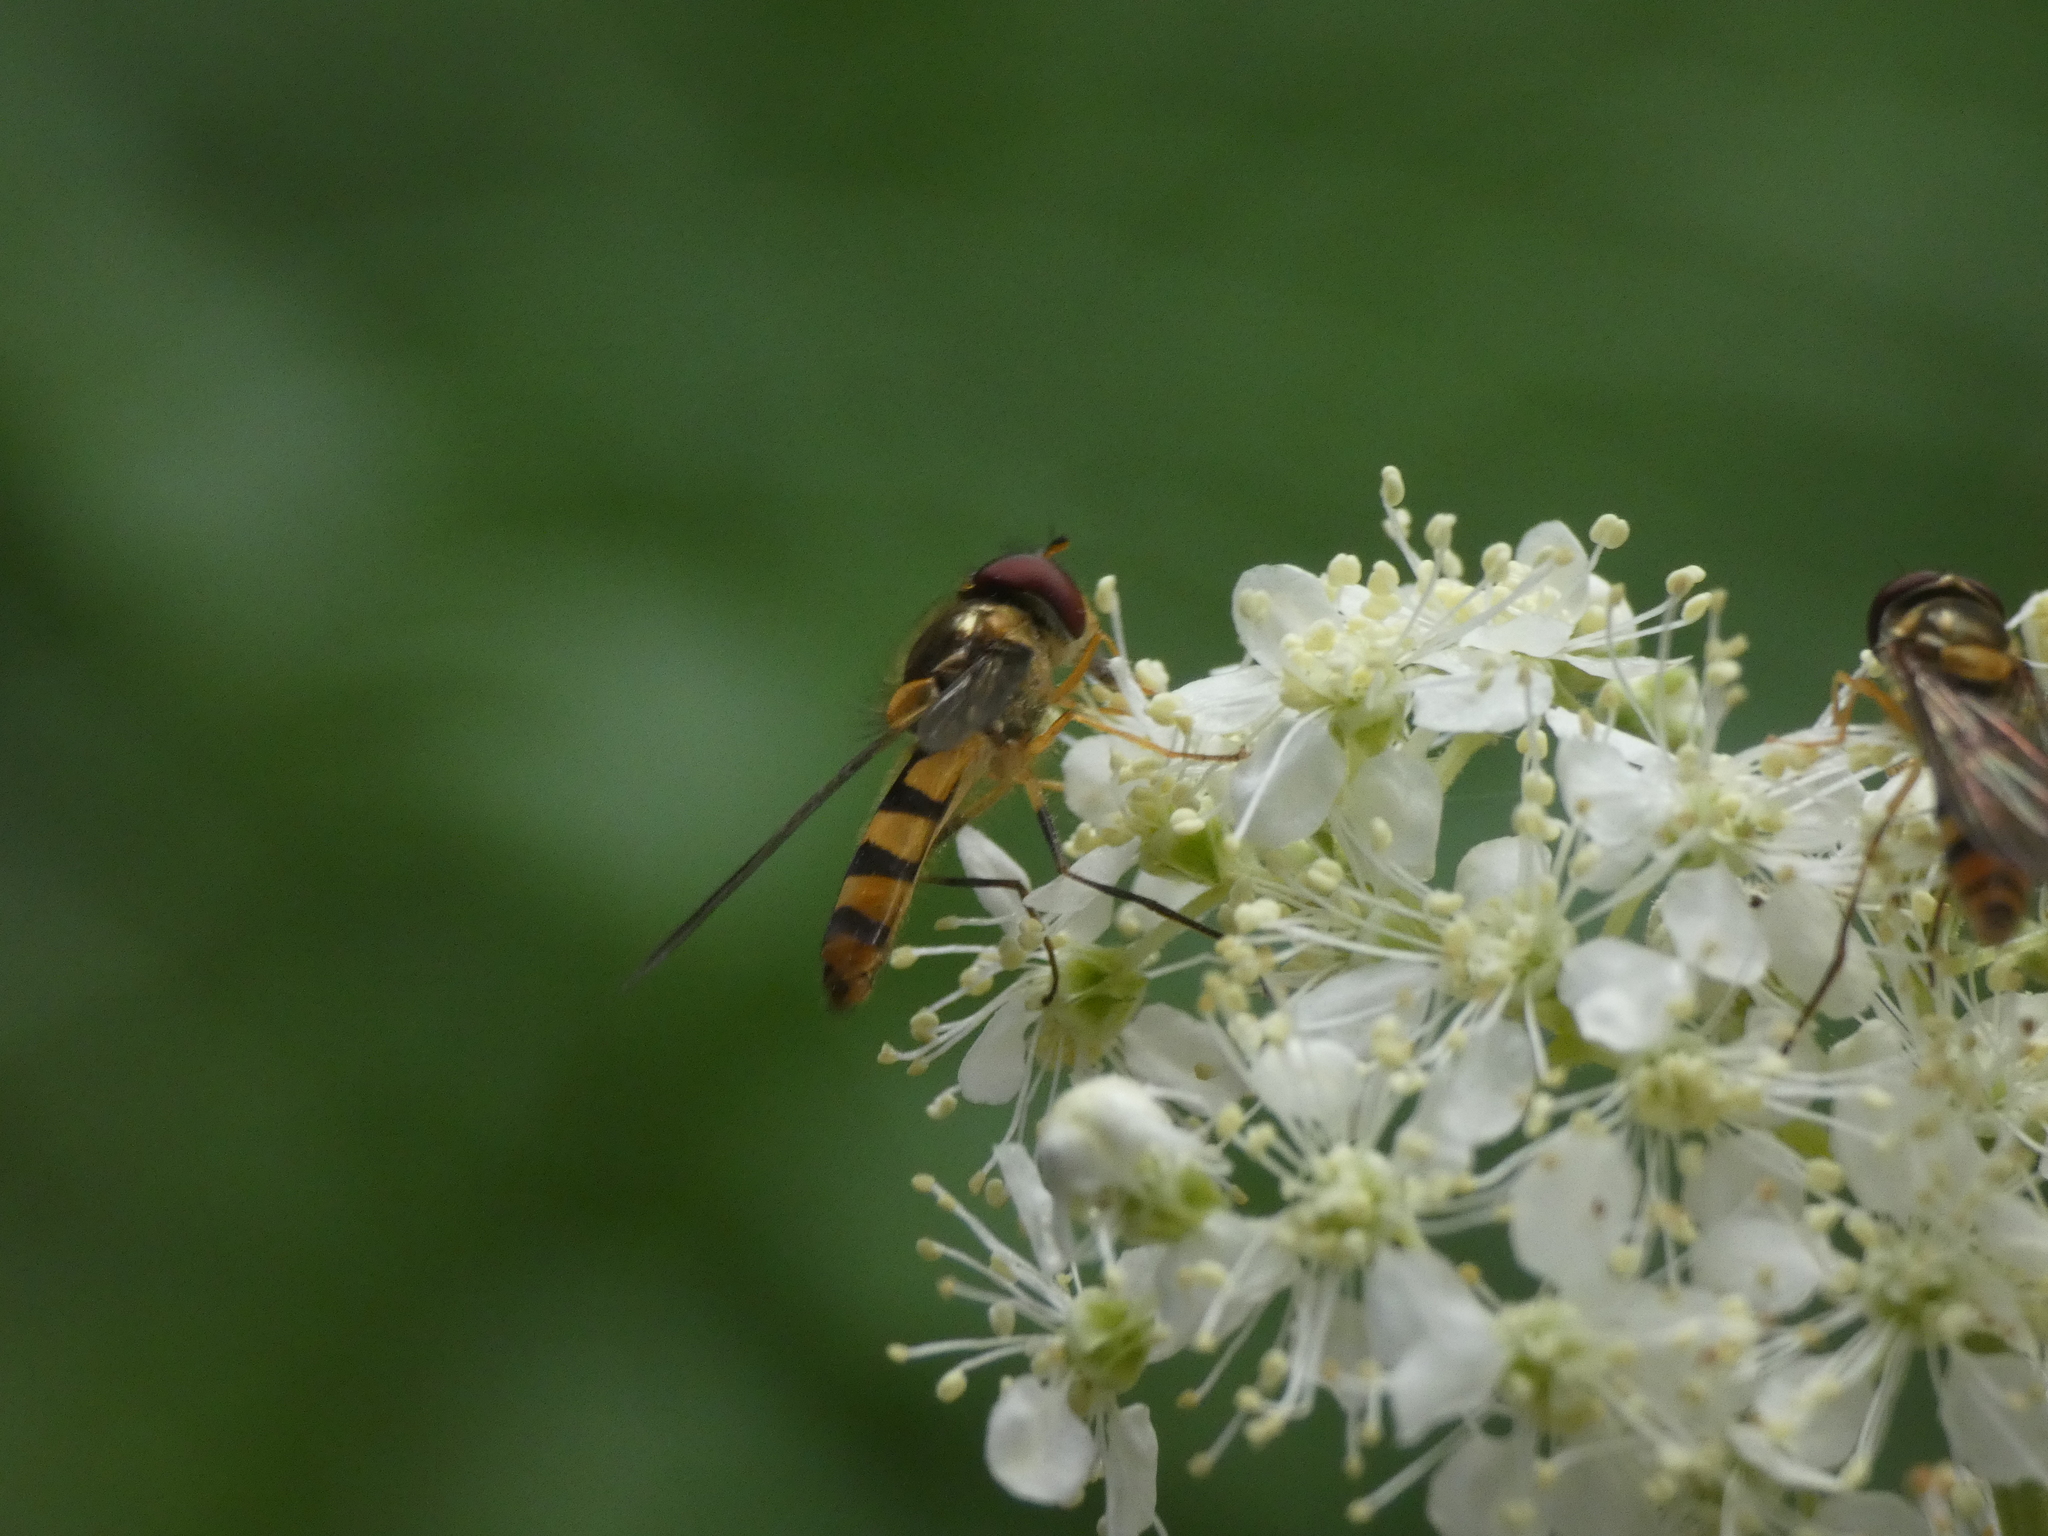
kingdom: Animalia
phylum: Arthropoda
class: Insecta
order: Diptera
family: Syrphidae
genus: Meliscaeva
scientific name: Meliscaeva cinctella
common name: American thintail fly
